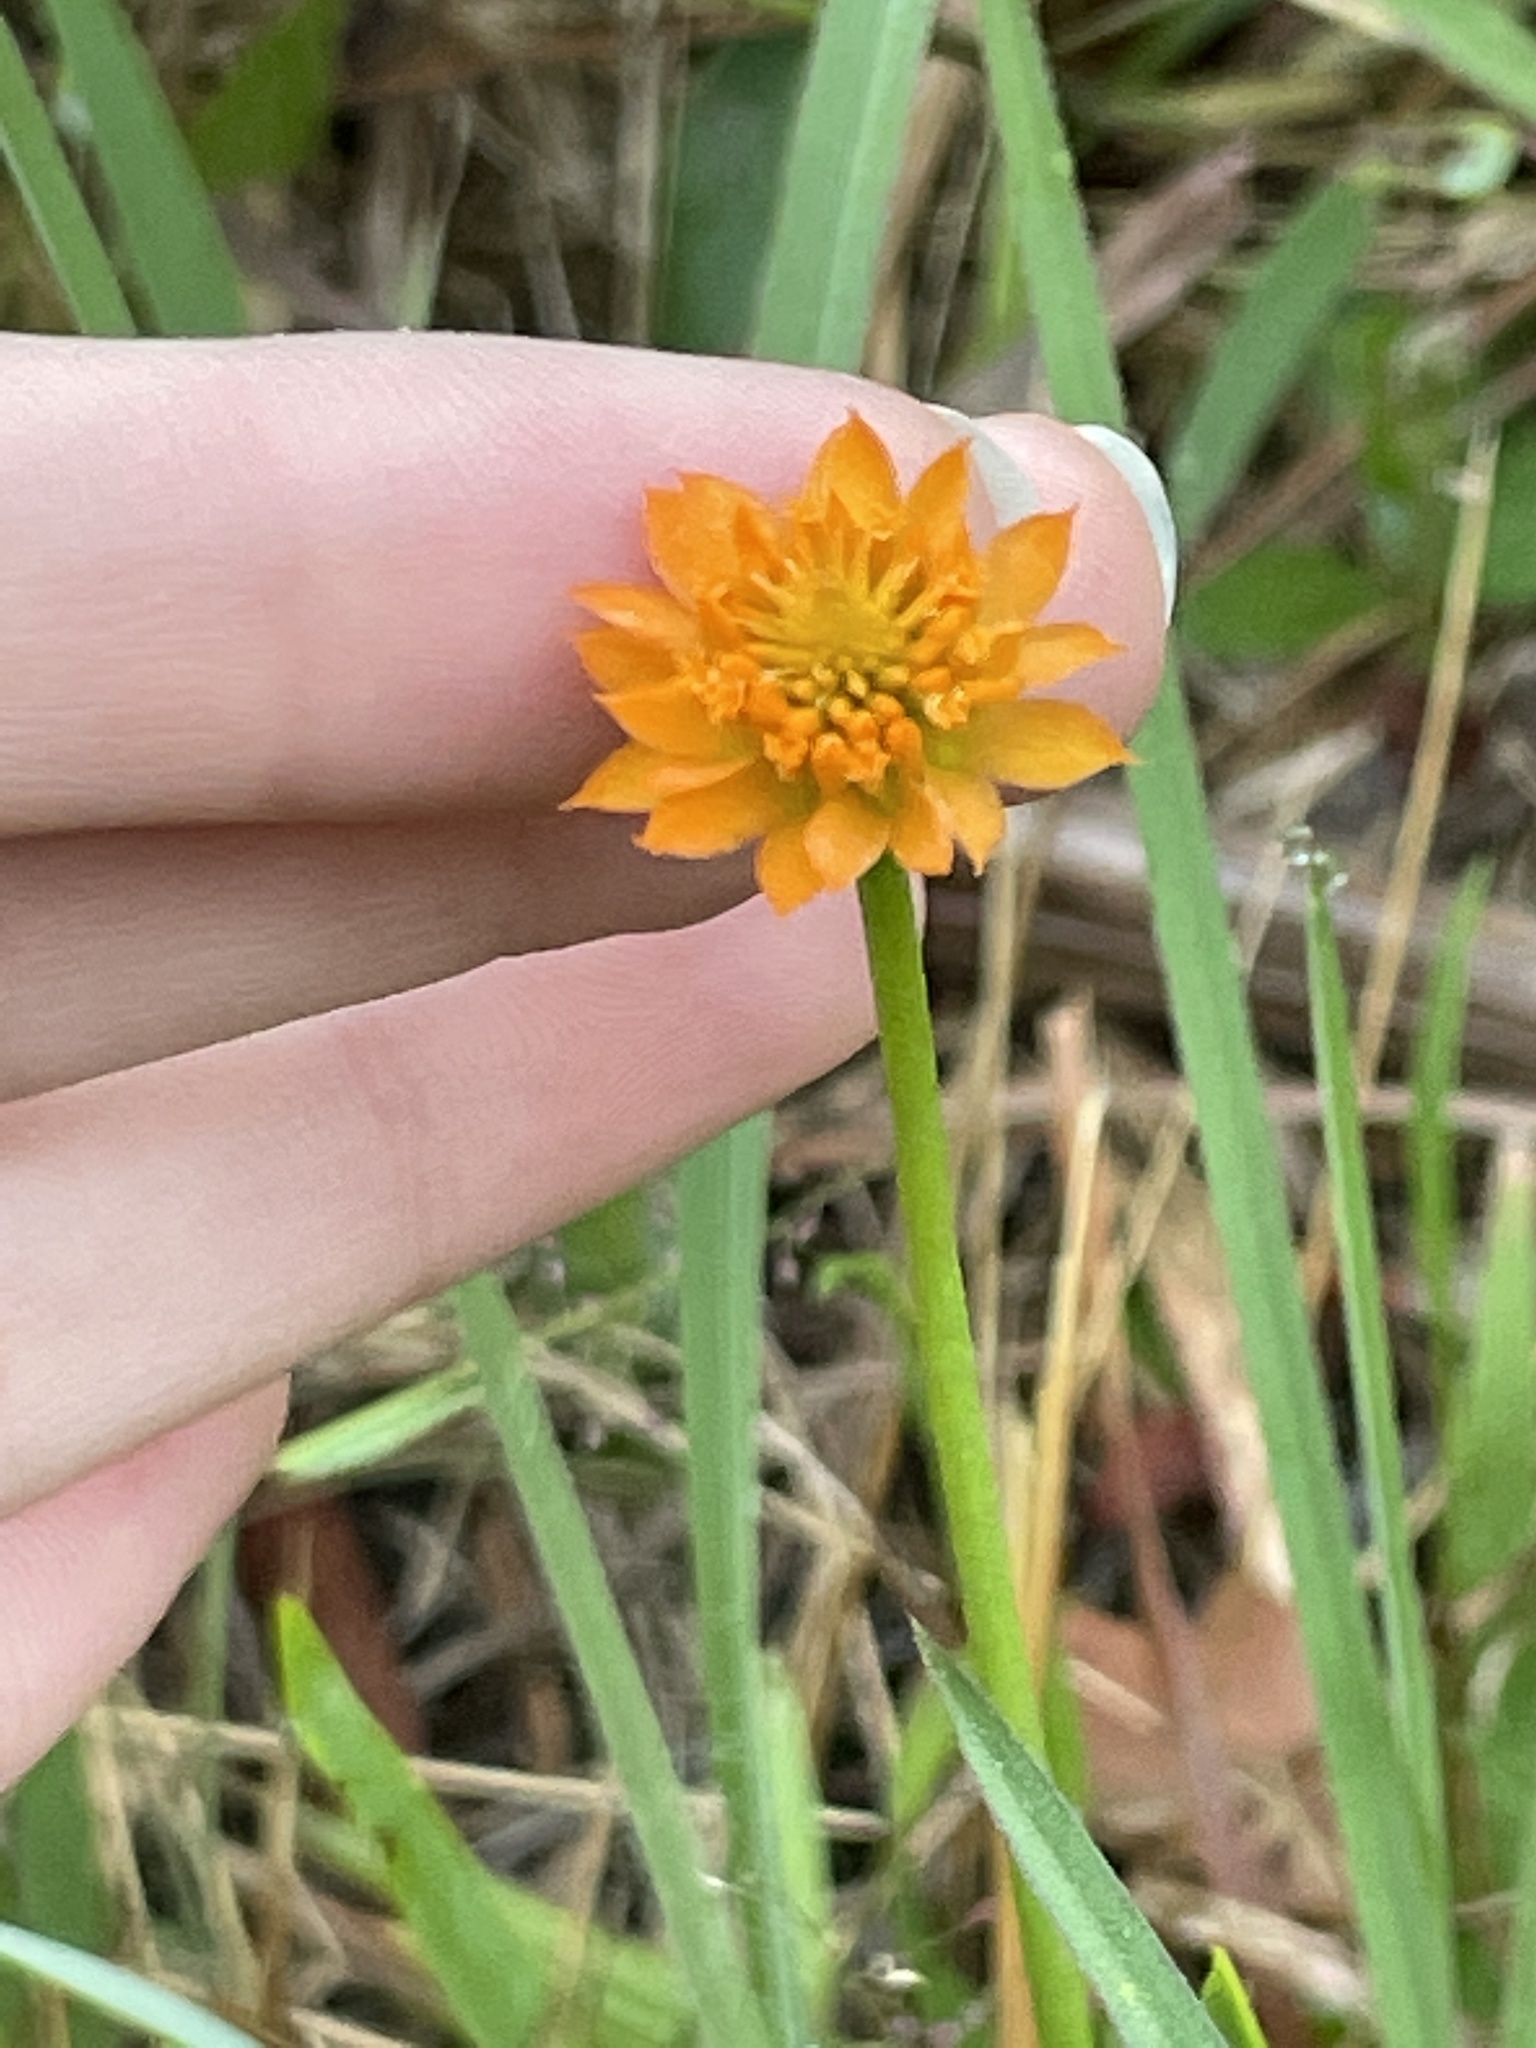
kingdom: Plantae
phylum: Tracheophyta
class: Magnoliopsida
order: Fabales
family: Polygalaceae
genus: Polygala
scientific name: Polygala lutea
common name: Orange milkwort
